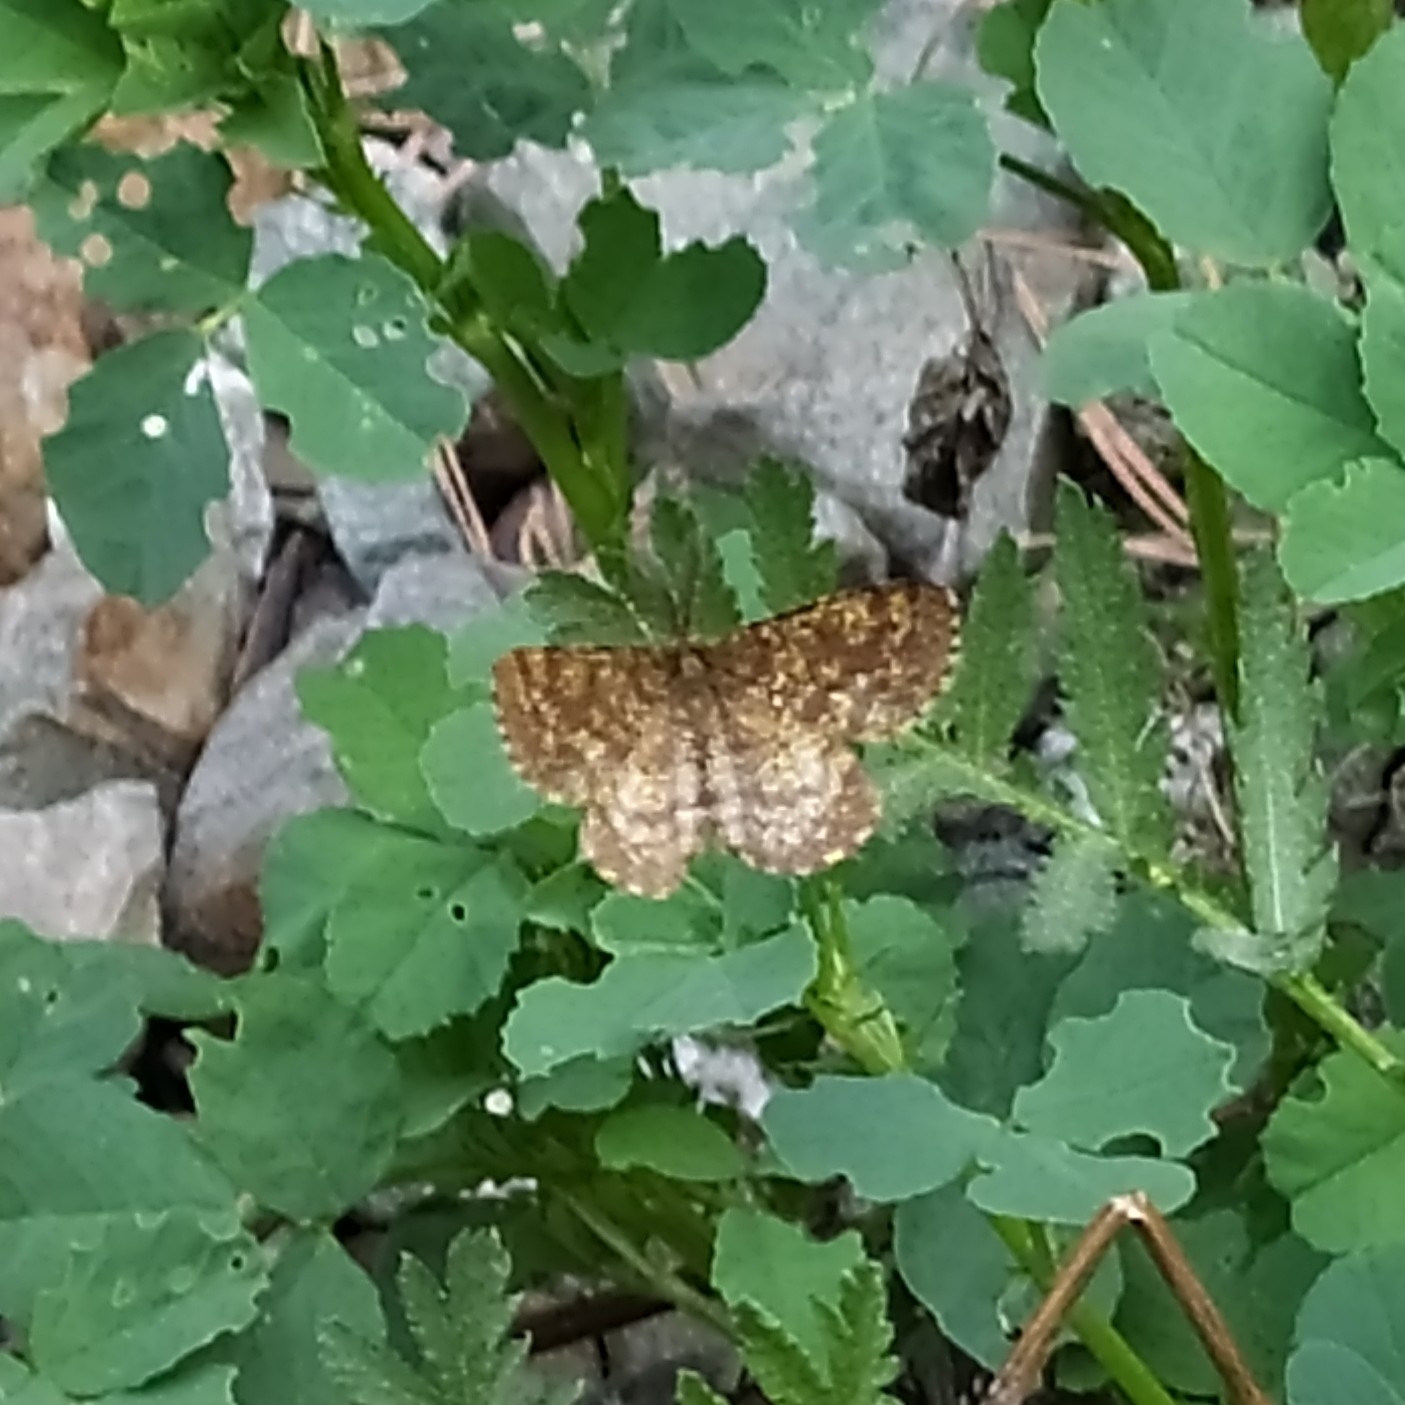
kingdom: Animalia
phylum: Arthropoda
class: Insecta
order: Lepidoptera
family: Geometridae
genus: Ematurga
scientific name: Ematurga atomaria
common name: Common heath
